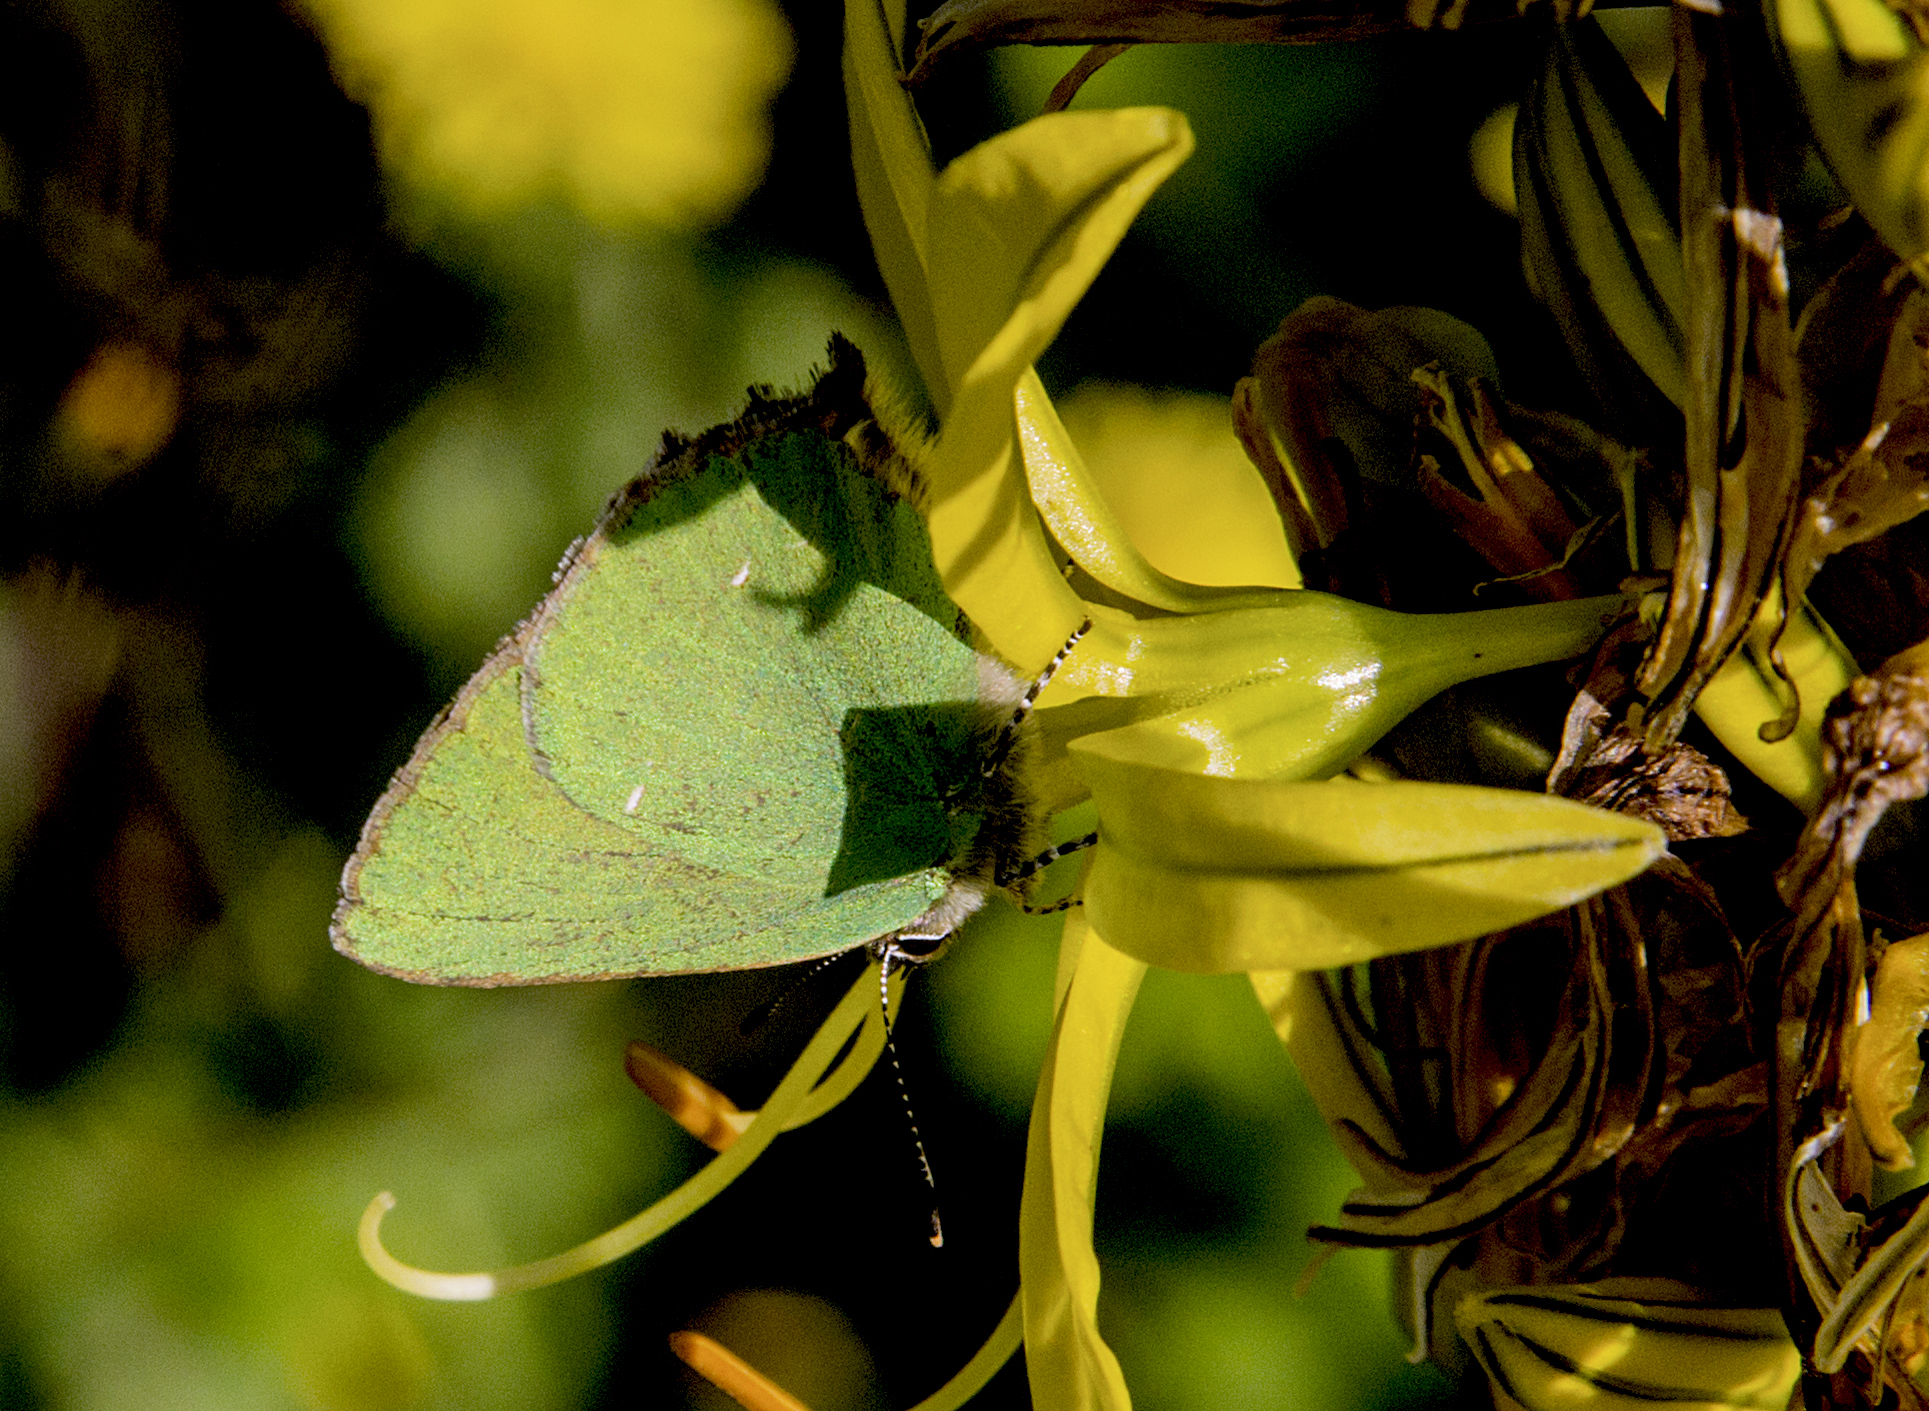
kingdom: Animalia
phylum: Arthropoda
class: Insecta
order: Lepidoptera
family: Lycaenidae
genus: Callophrys
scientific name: Callophrys rubi
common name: Green hairstreak
